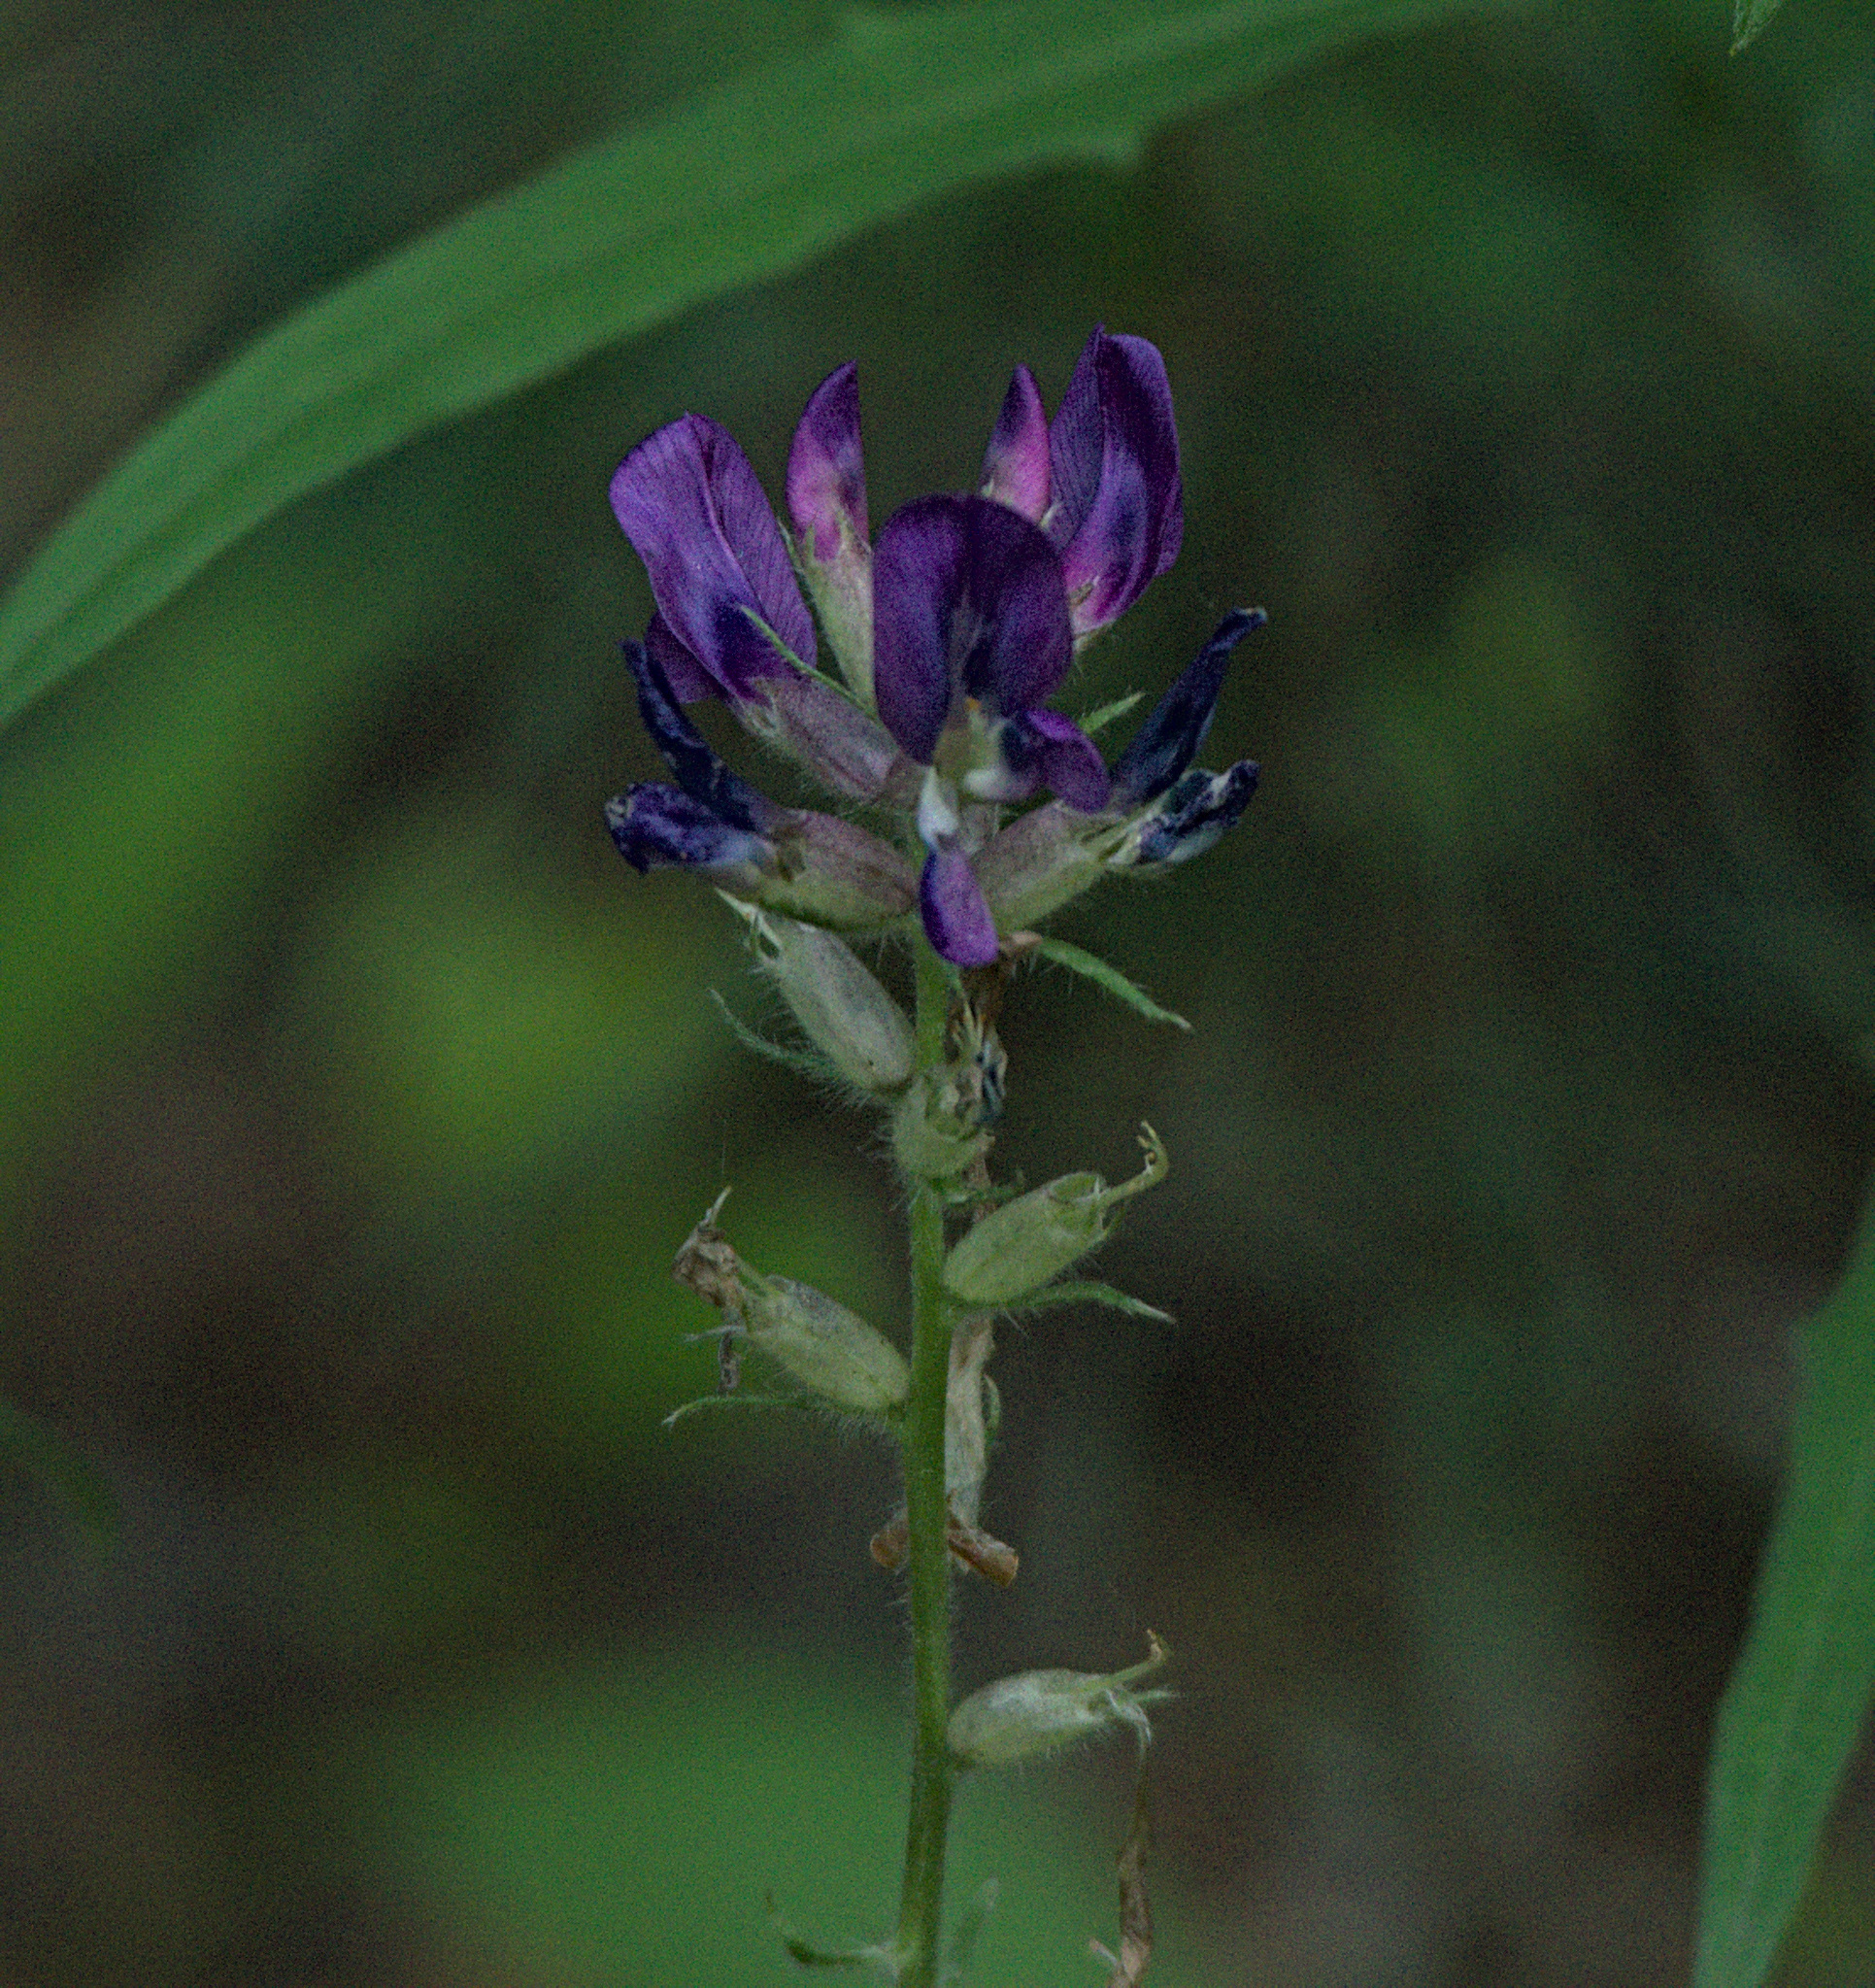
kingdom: Plantae
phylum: Tracheophyta
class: Magnoliopsida
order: Fabales
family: Fabaceae
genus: Oxytropis
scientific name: Oxytropis campanulata
